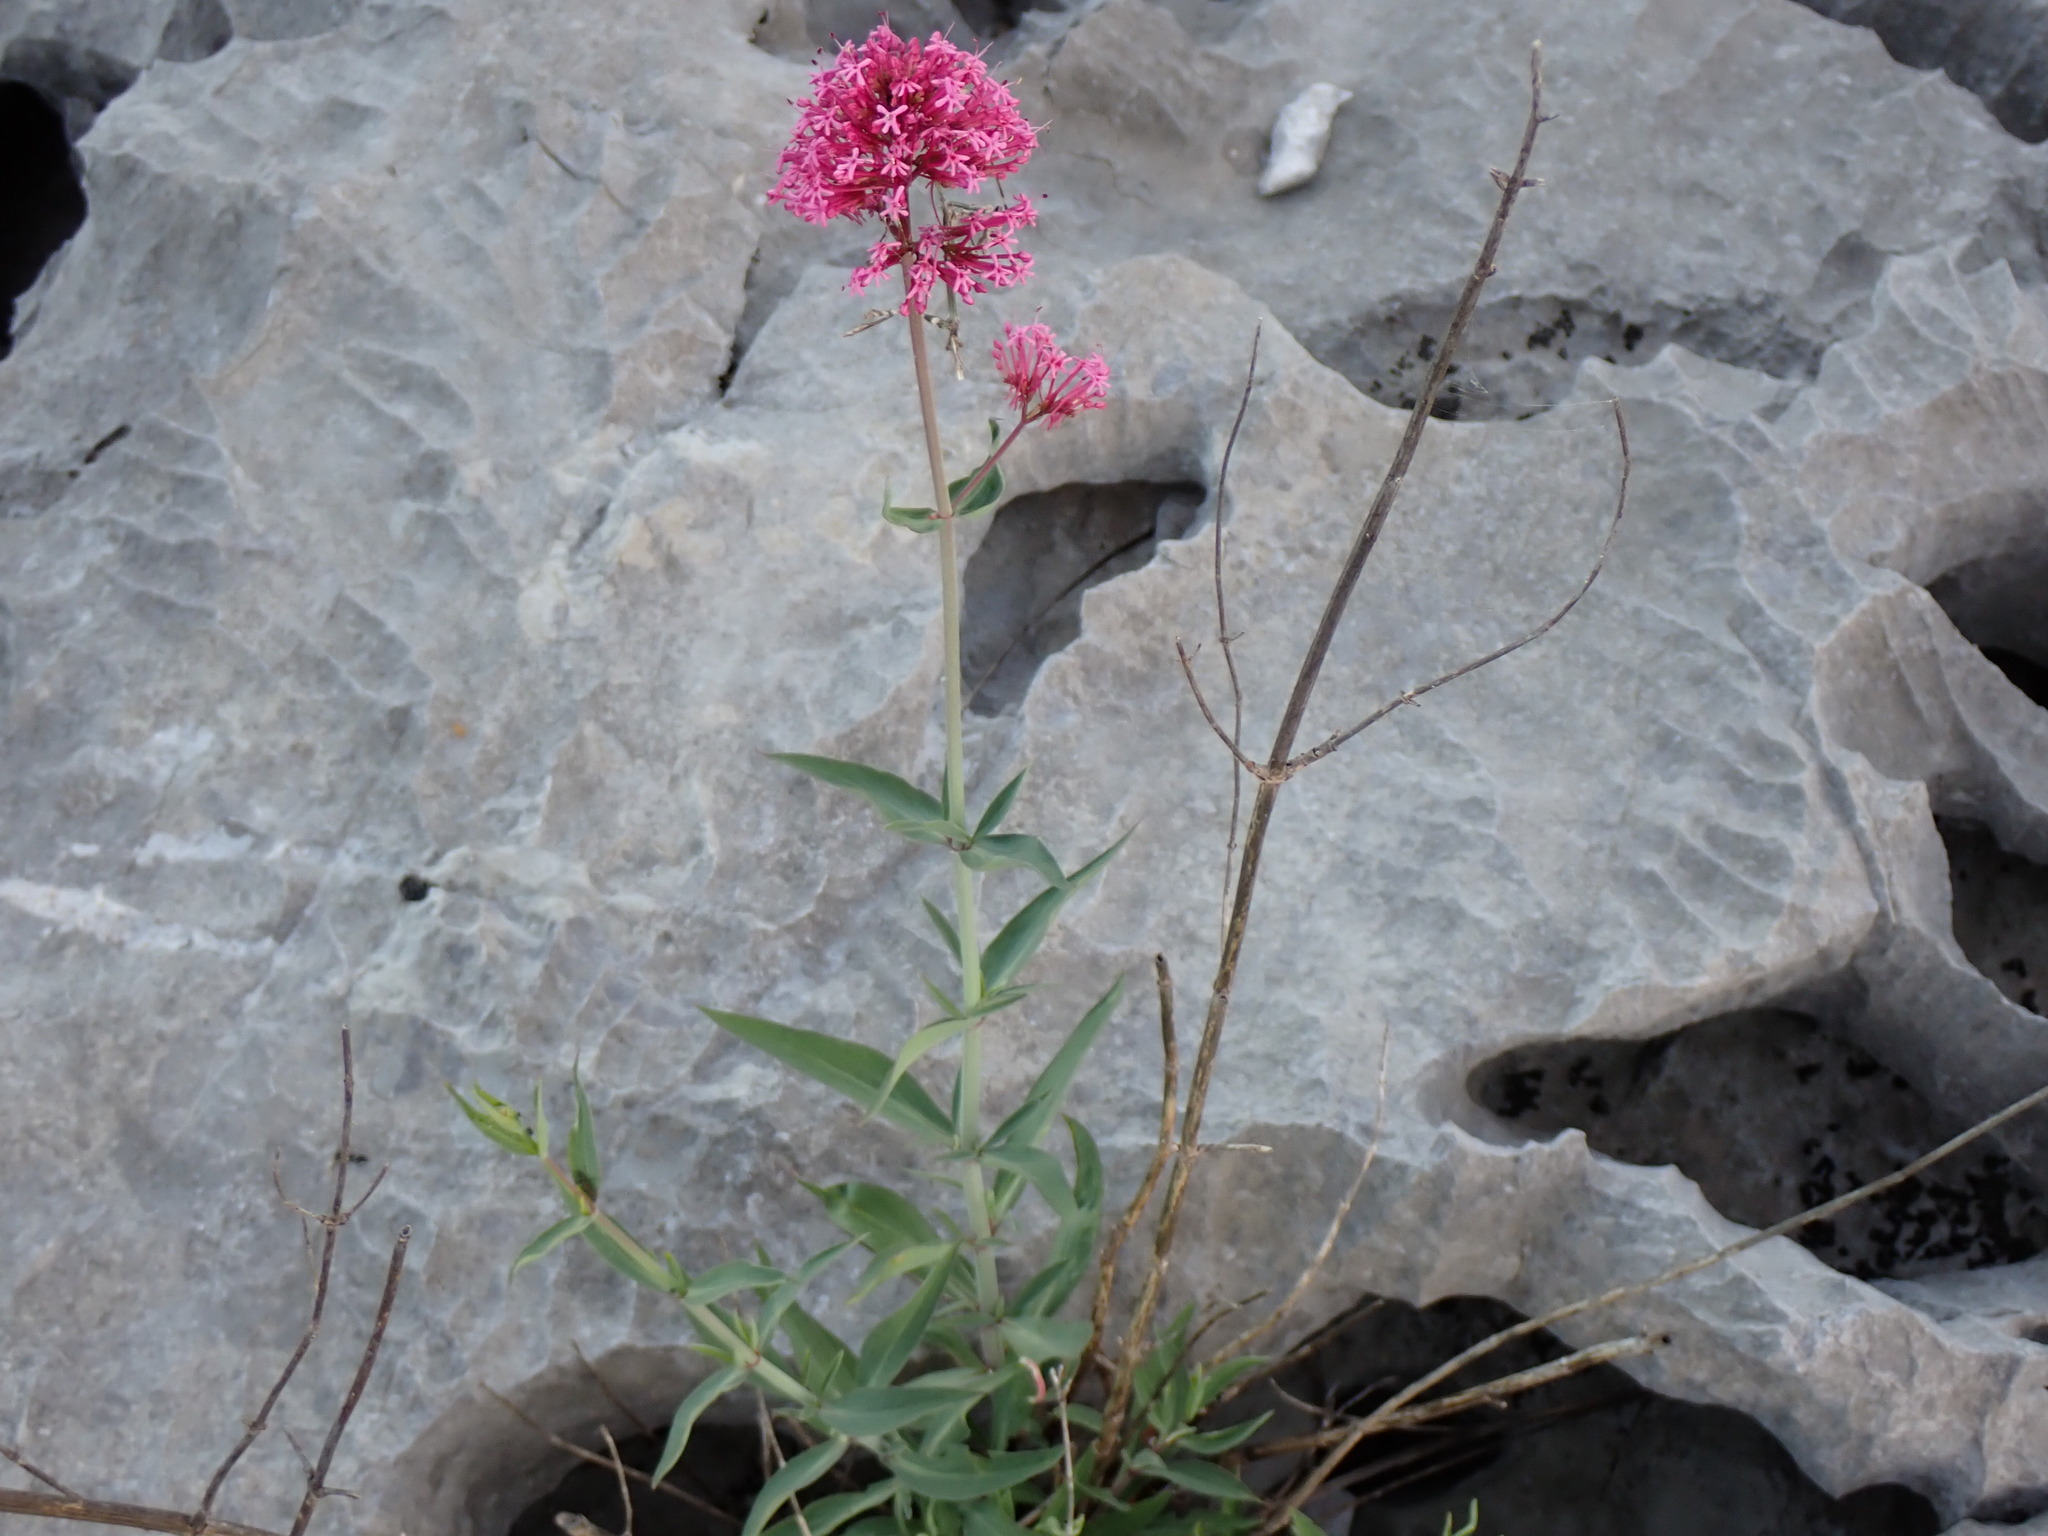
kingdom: Plantae
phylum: Tracheophyta
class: Magnoliopsida
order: Dipsacales
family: Caprifoliaceae
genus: Centranthus
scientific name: Centranthus lecoqii
